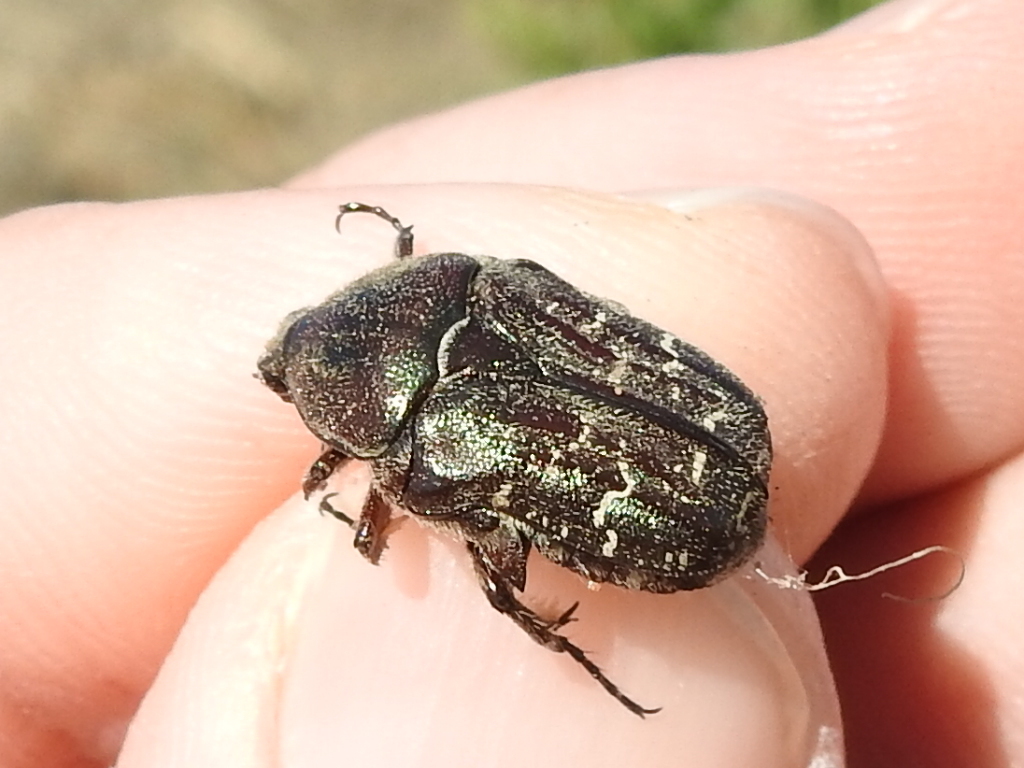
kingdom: Animalia
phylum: Arthropoda
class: Insecta
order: Coleoptera
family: Scarabaeidae
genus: Euphoria
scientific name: Euphoria sepulcralis
